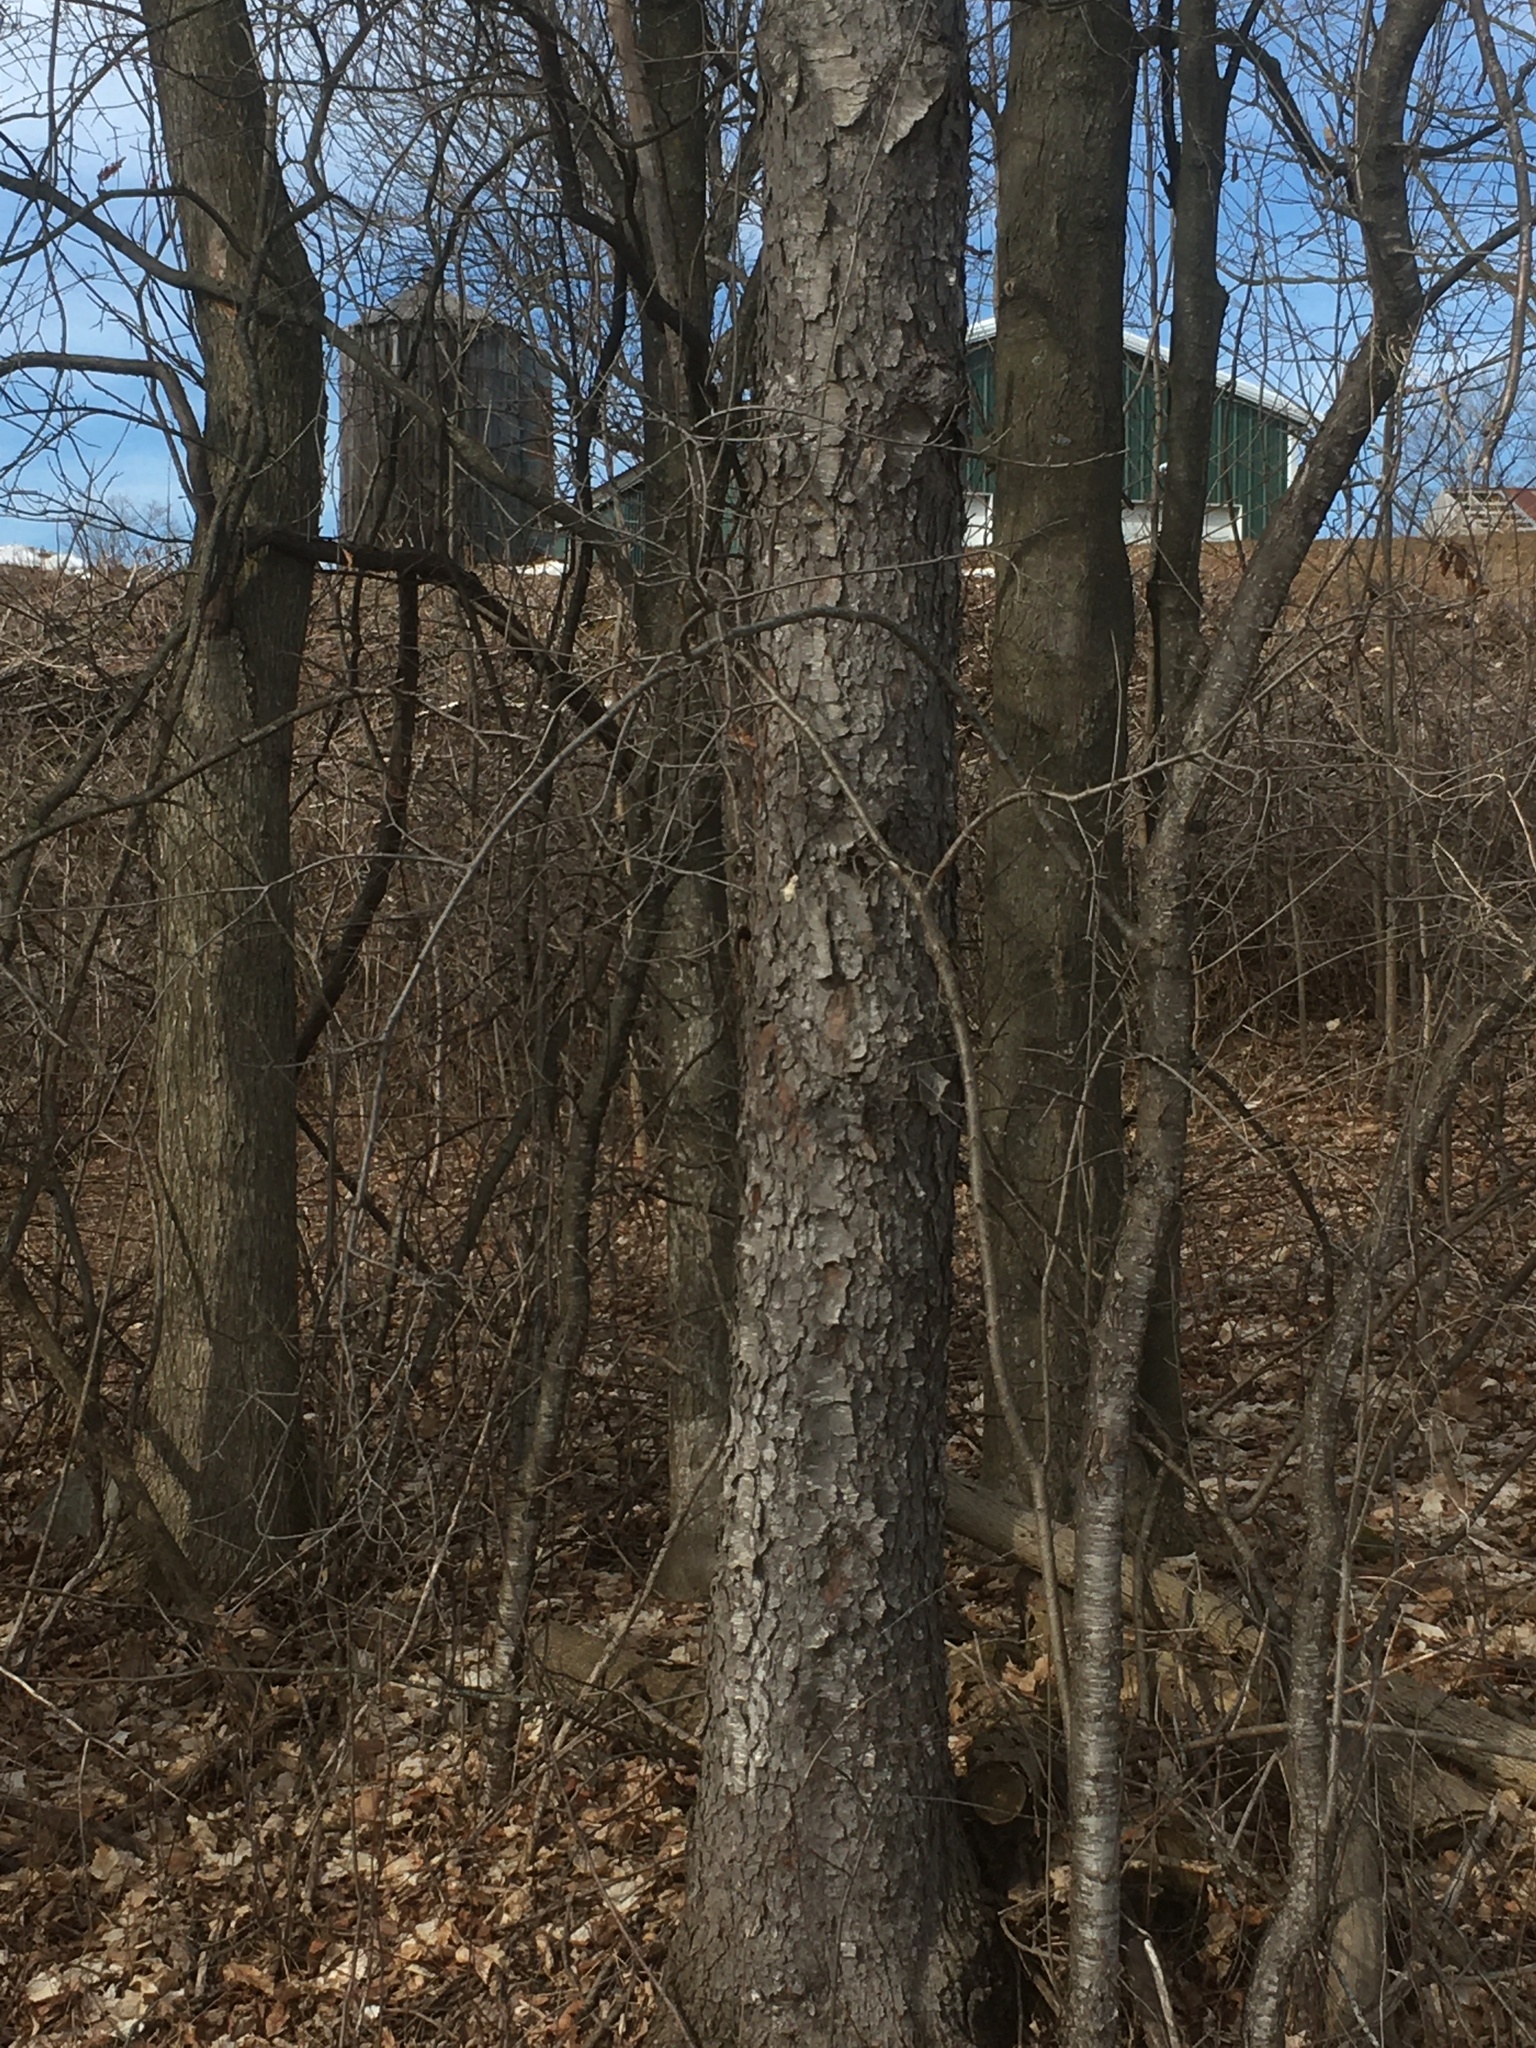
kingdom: Plantae
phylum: Tracheophyta
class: Magnoliopsida
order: Rosales
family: Rosaceae
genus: Prunus
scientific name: Prunus serotina
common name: Black cherry
